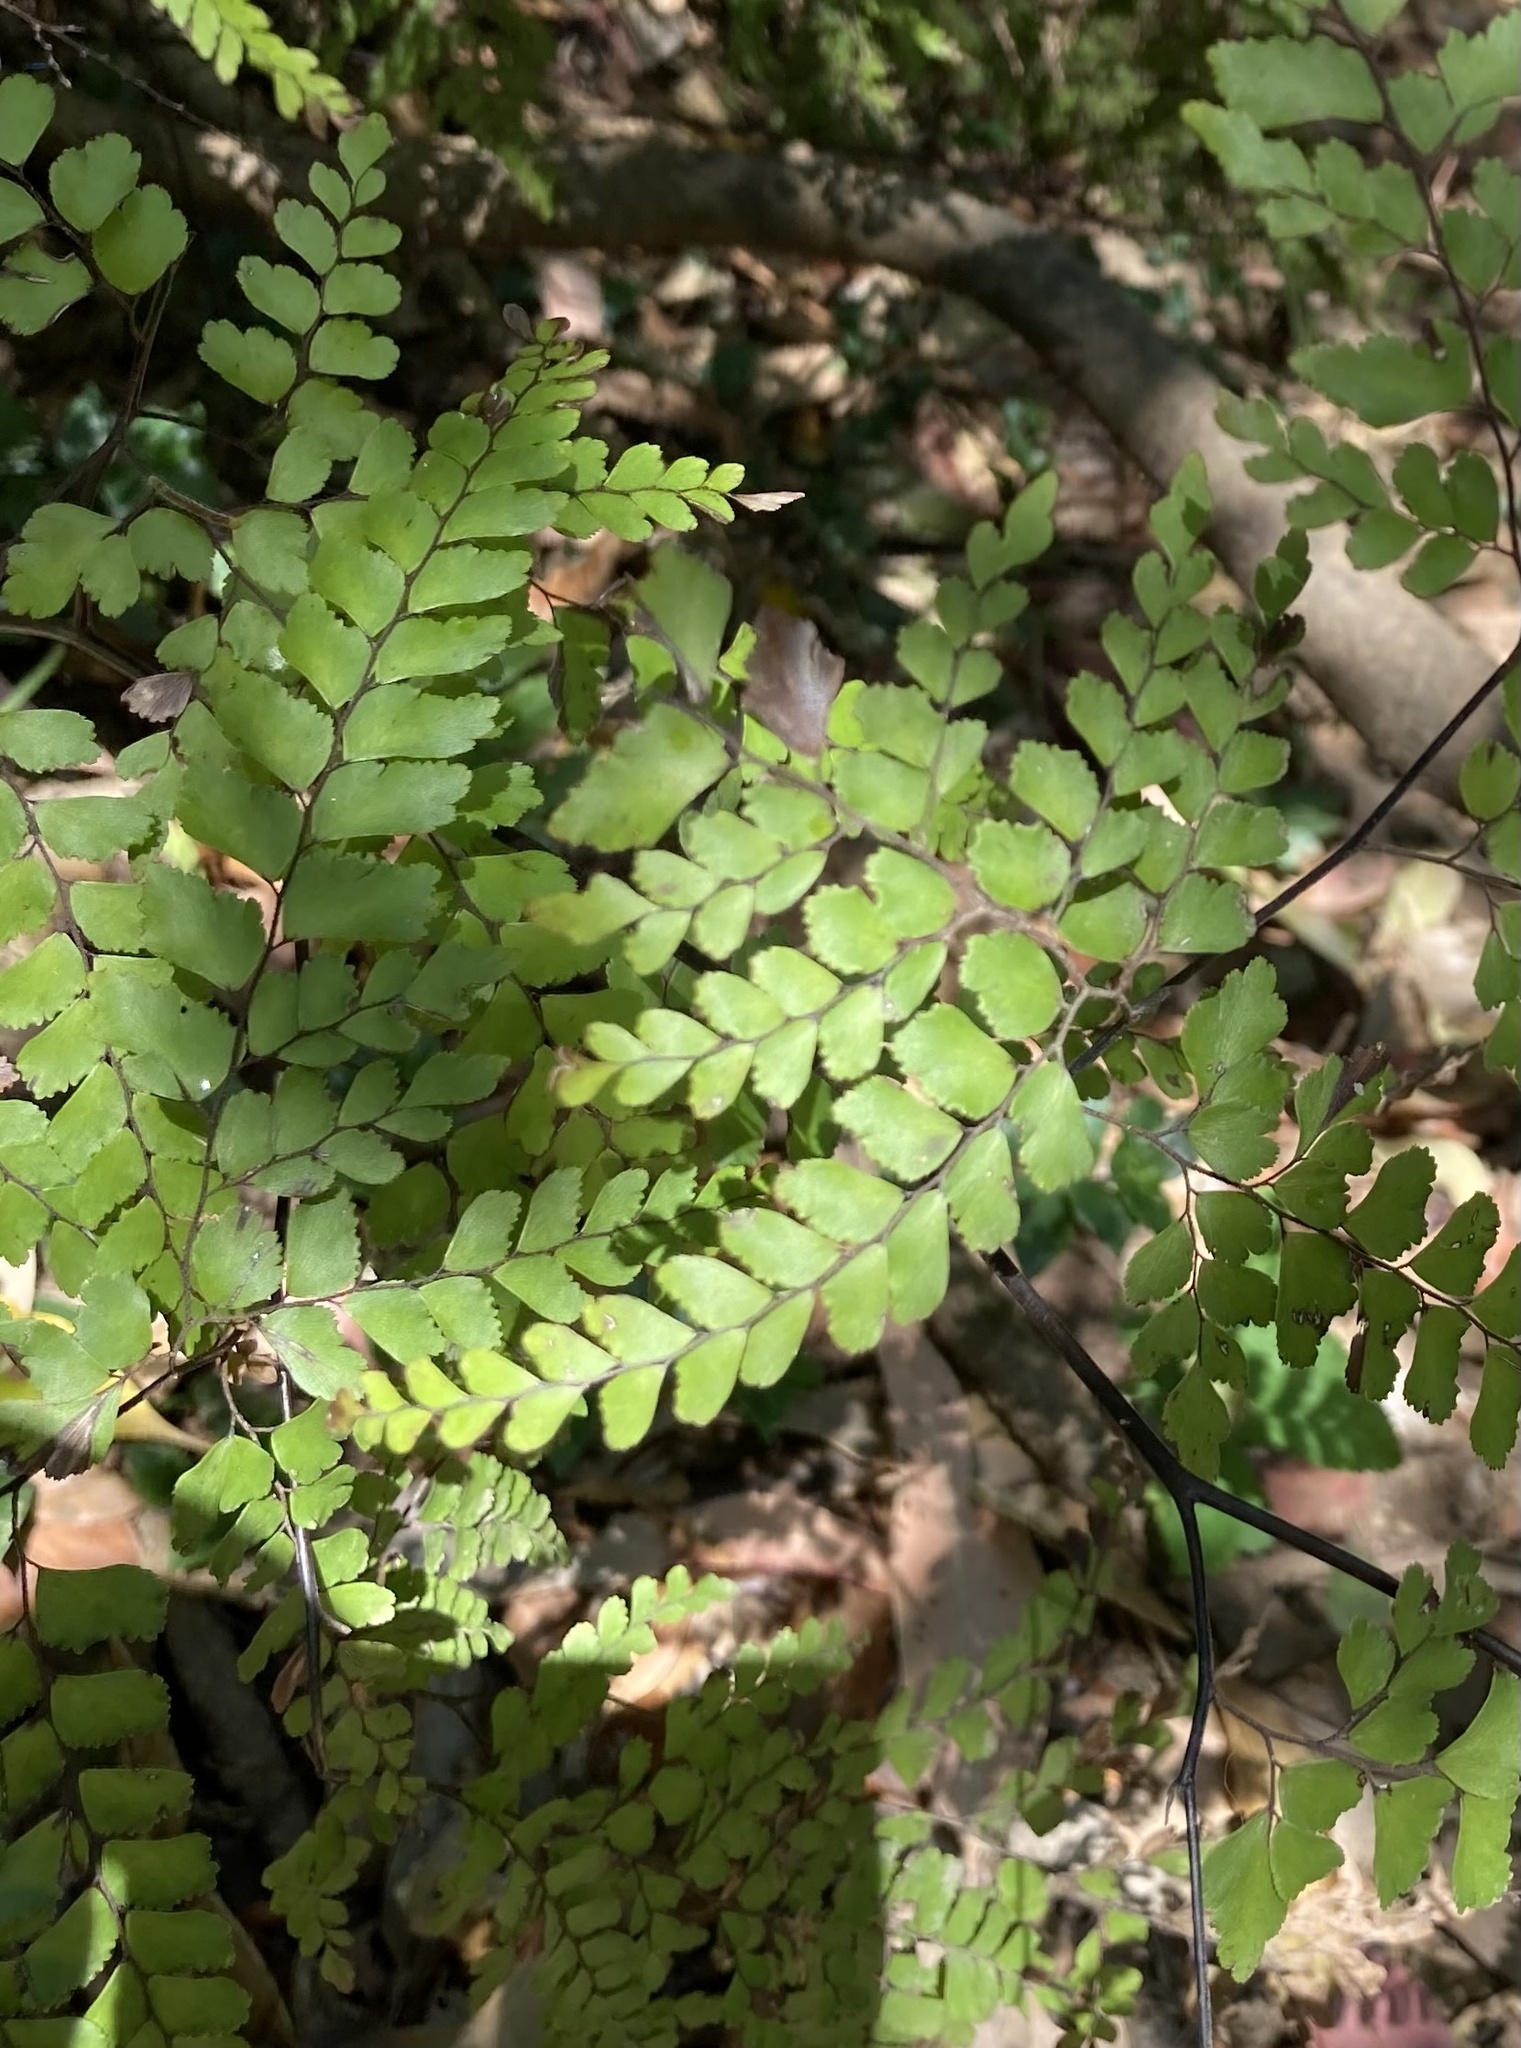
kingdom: Plantae
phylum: Tracheophyta
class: Polypodiopsida
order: Polypodiales
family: Pteridaceae
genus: Adiantum
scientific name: Adiantum formosum
